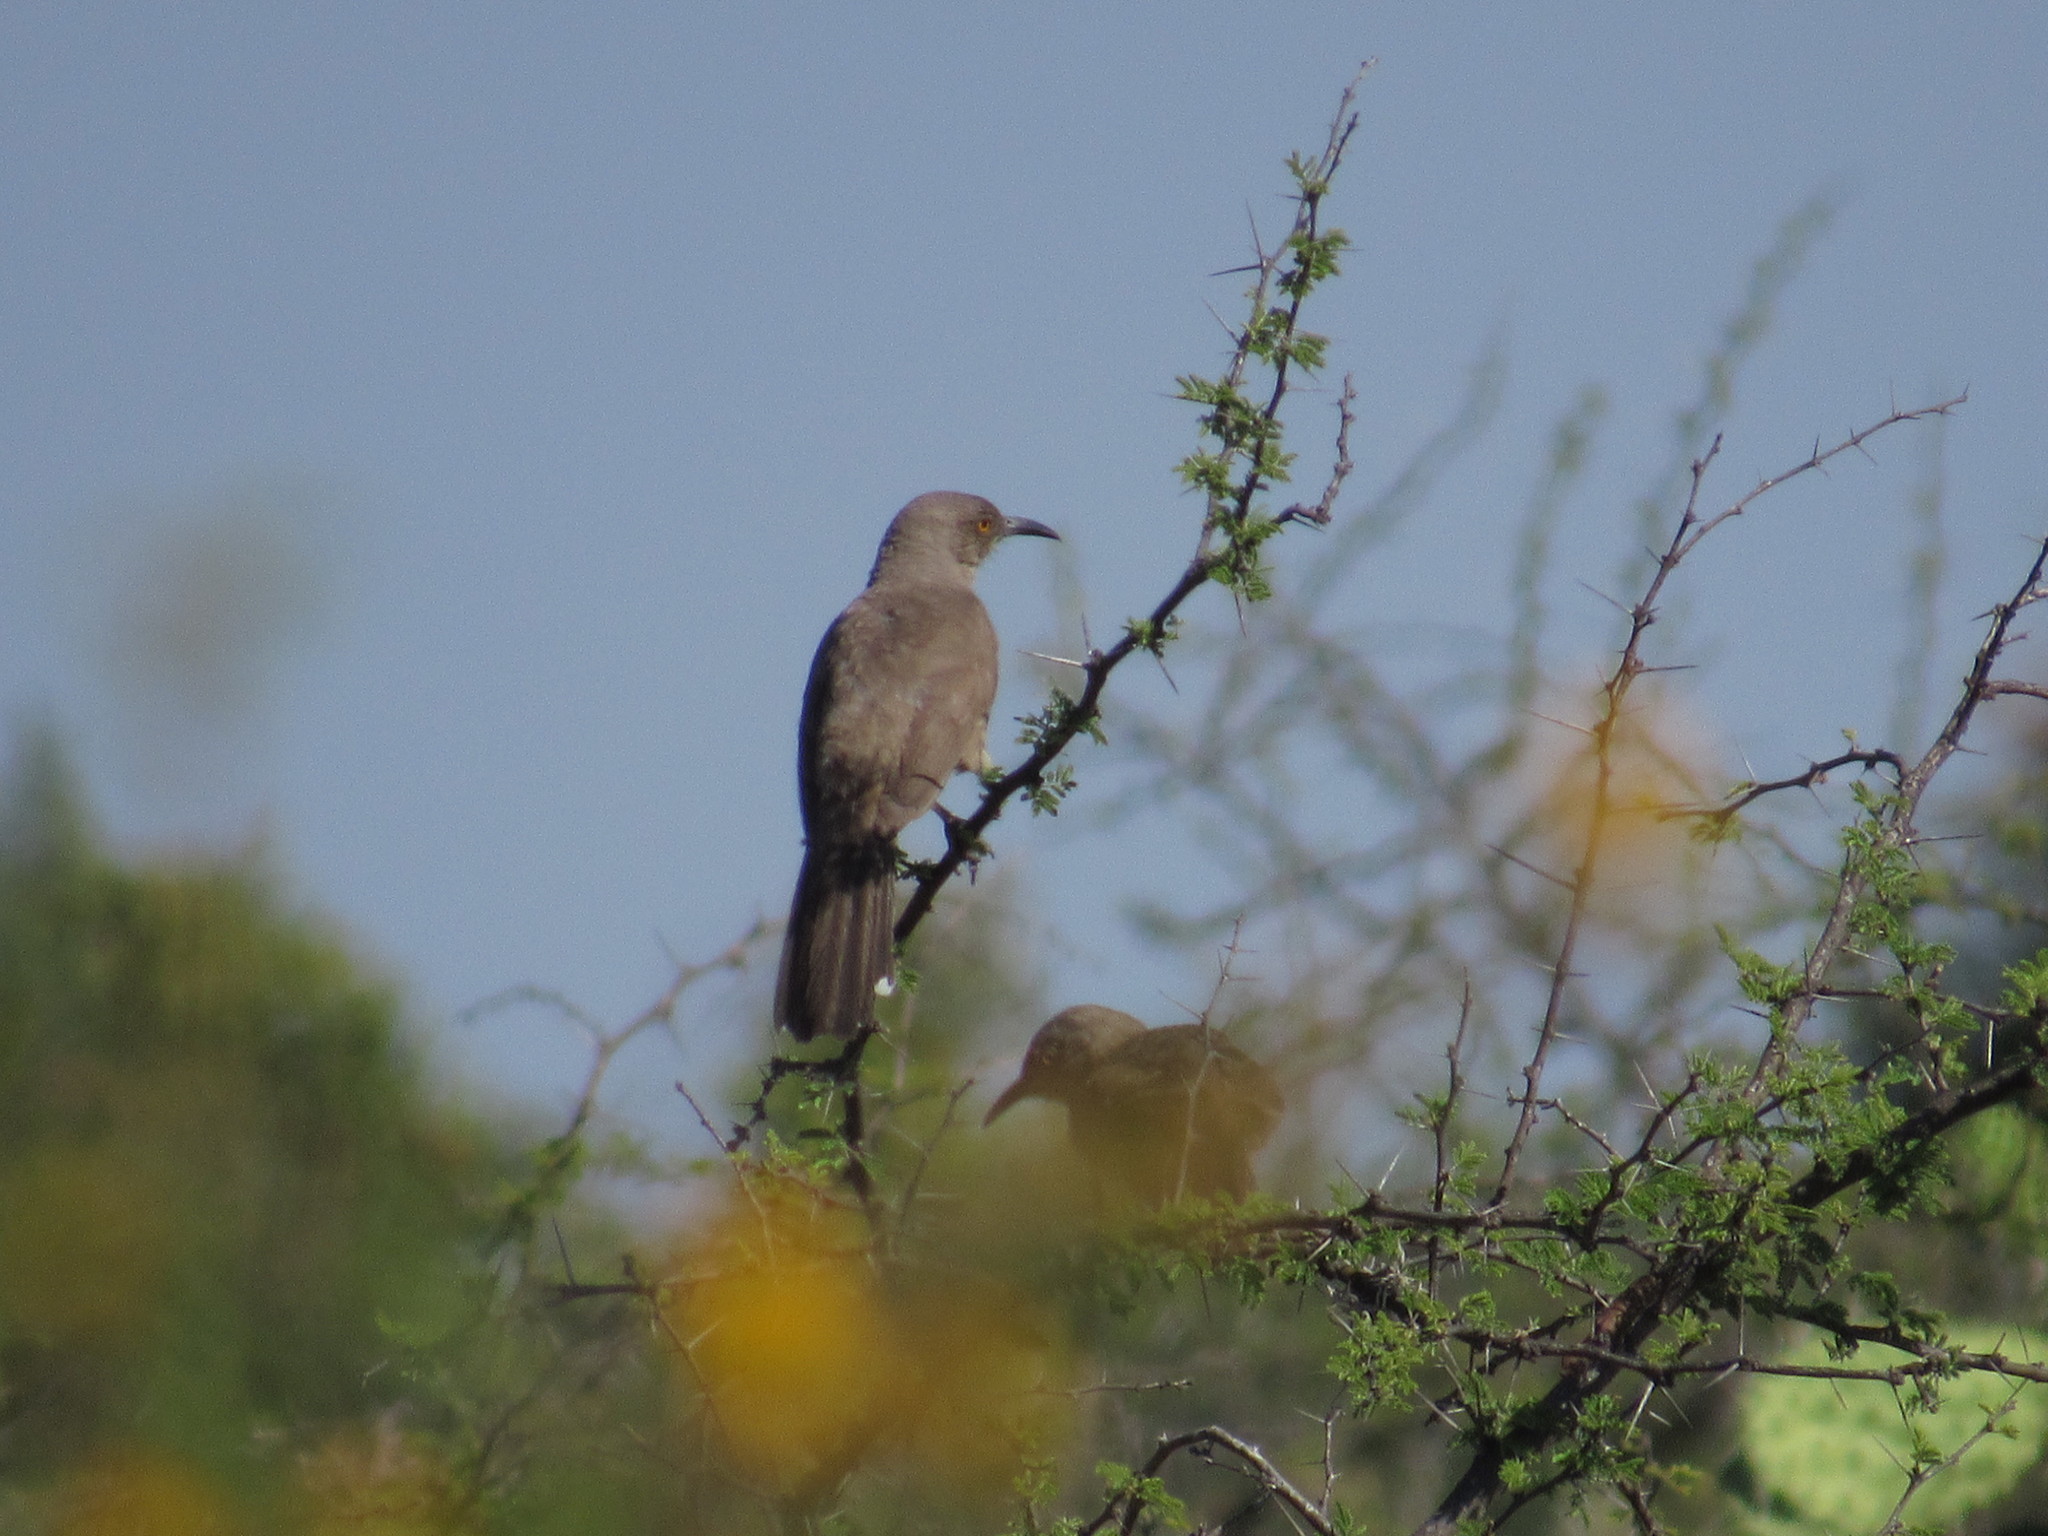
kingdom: Animalia
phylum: Chordata
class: Aves
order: Passeriformes
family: Mimidae
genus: Toxostoma
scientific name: Toxostoma curvirostre
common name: Curve-billed thrasher
